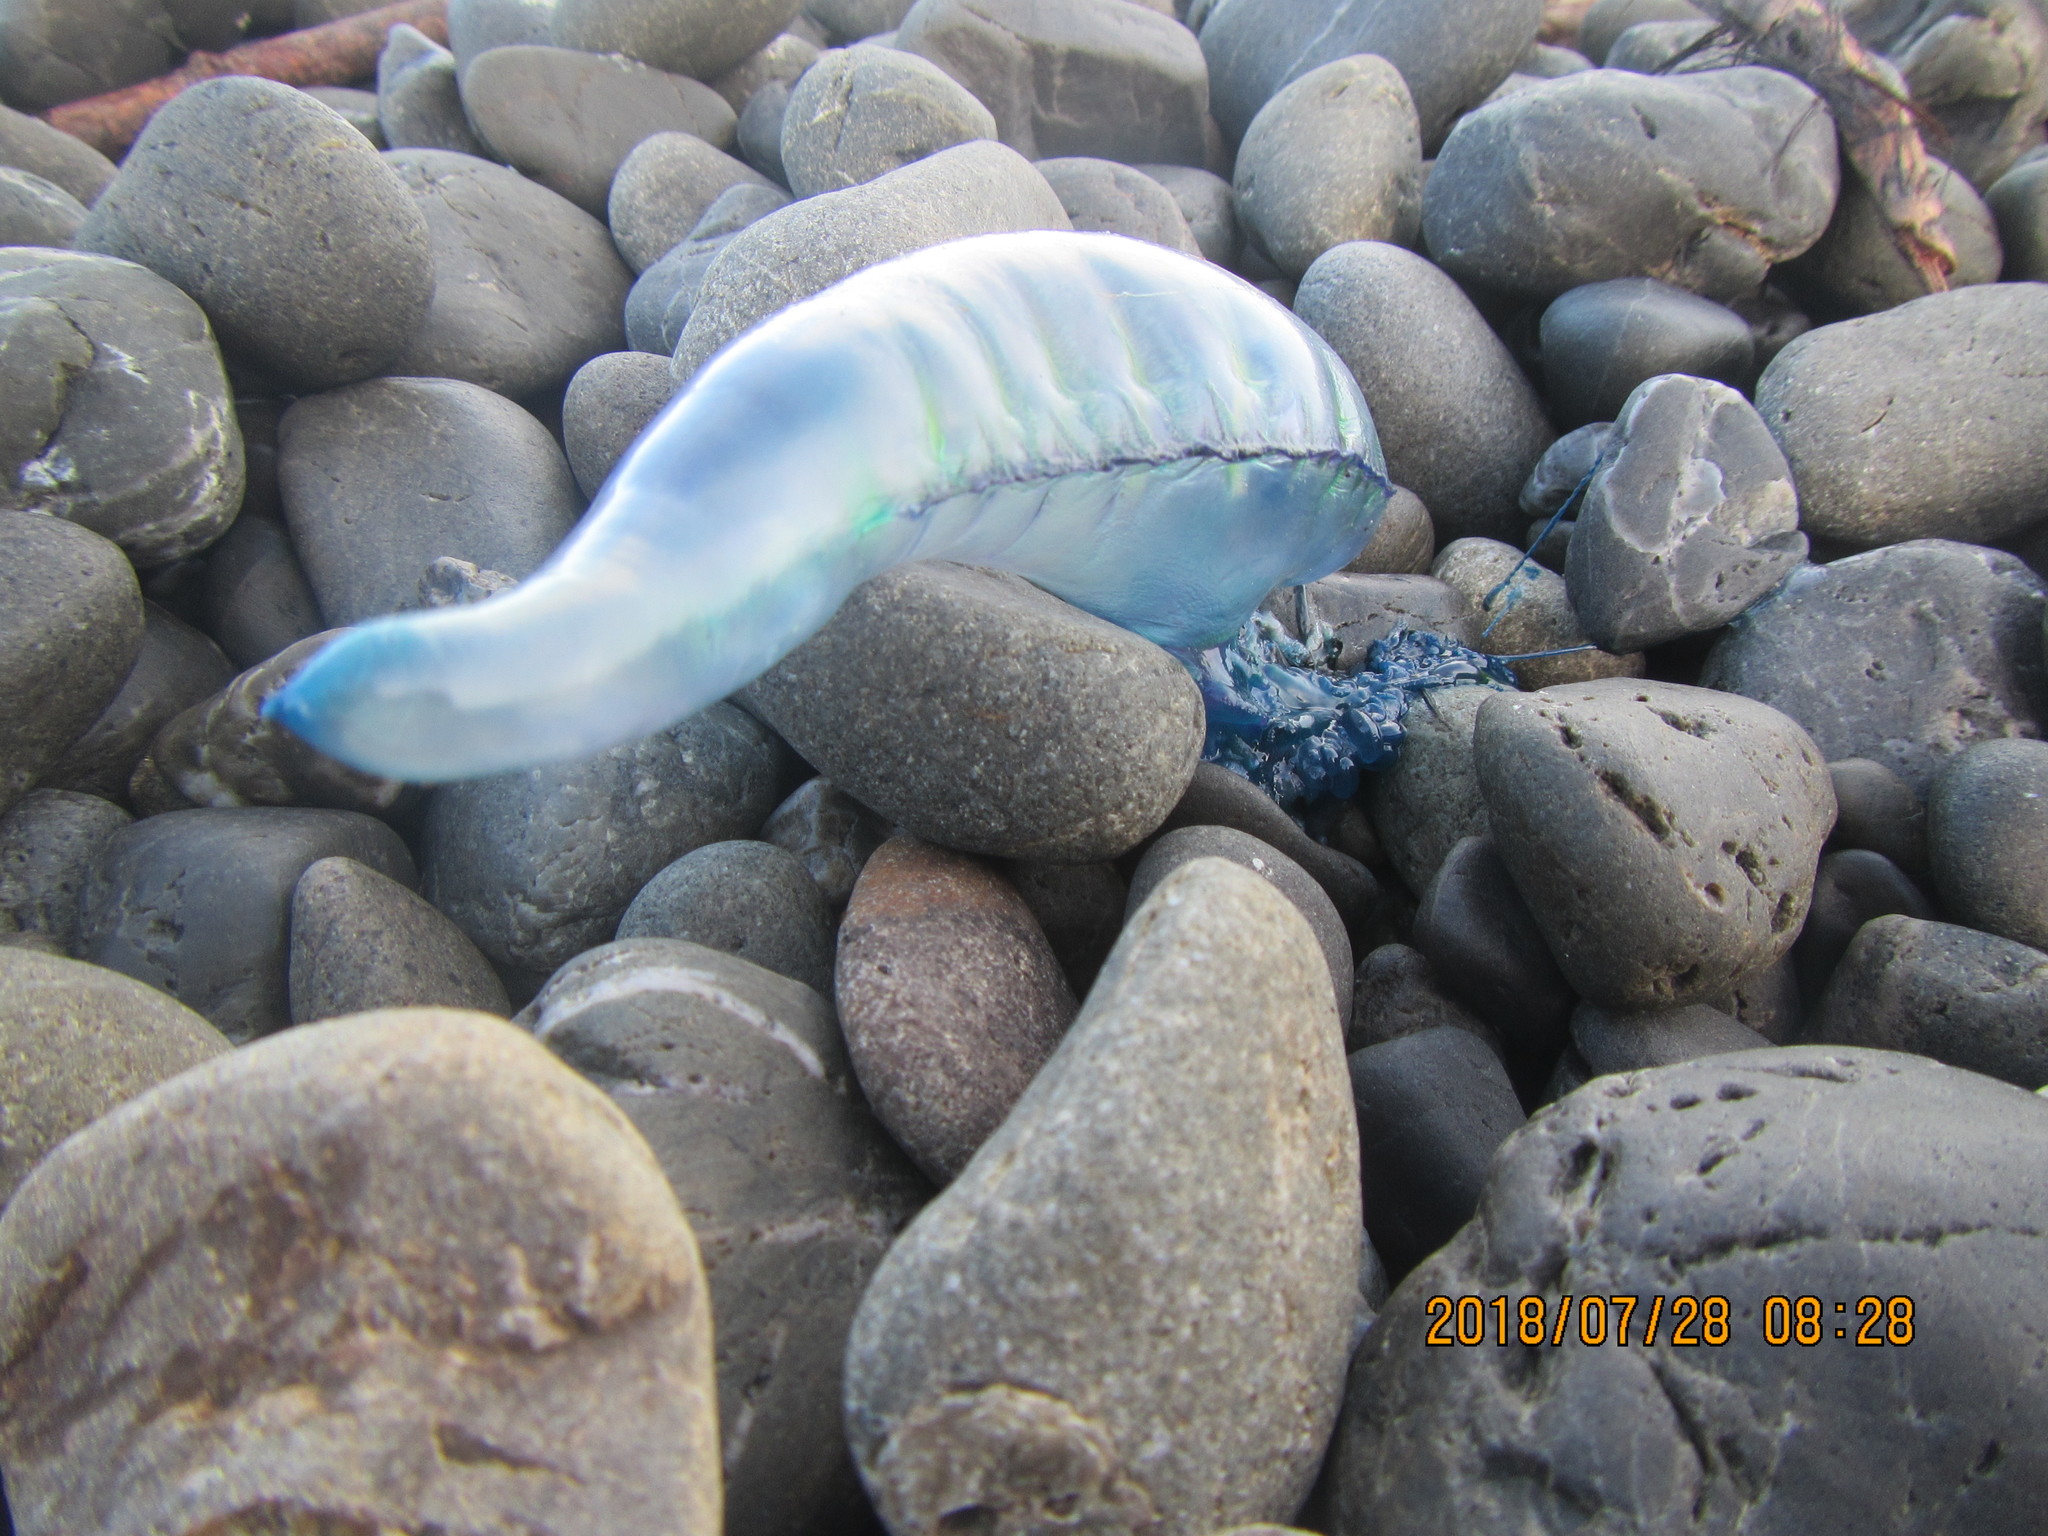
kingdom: Animalia
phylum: Cnidaria
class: Hydrozoa
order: Siphonophorae
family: Physaliidae
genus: Physalia
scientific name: Physalia physalis
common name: Portuguese man-of-war
